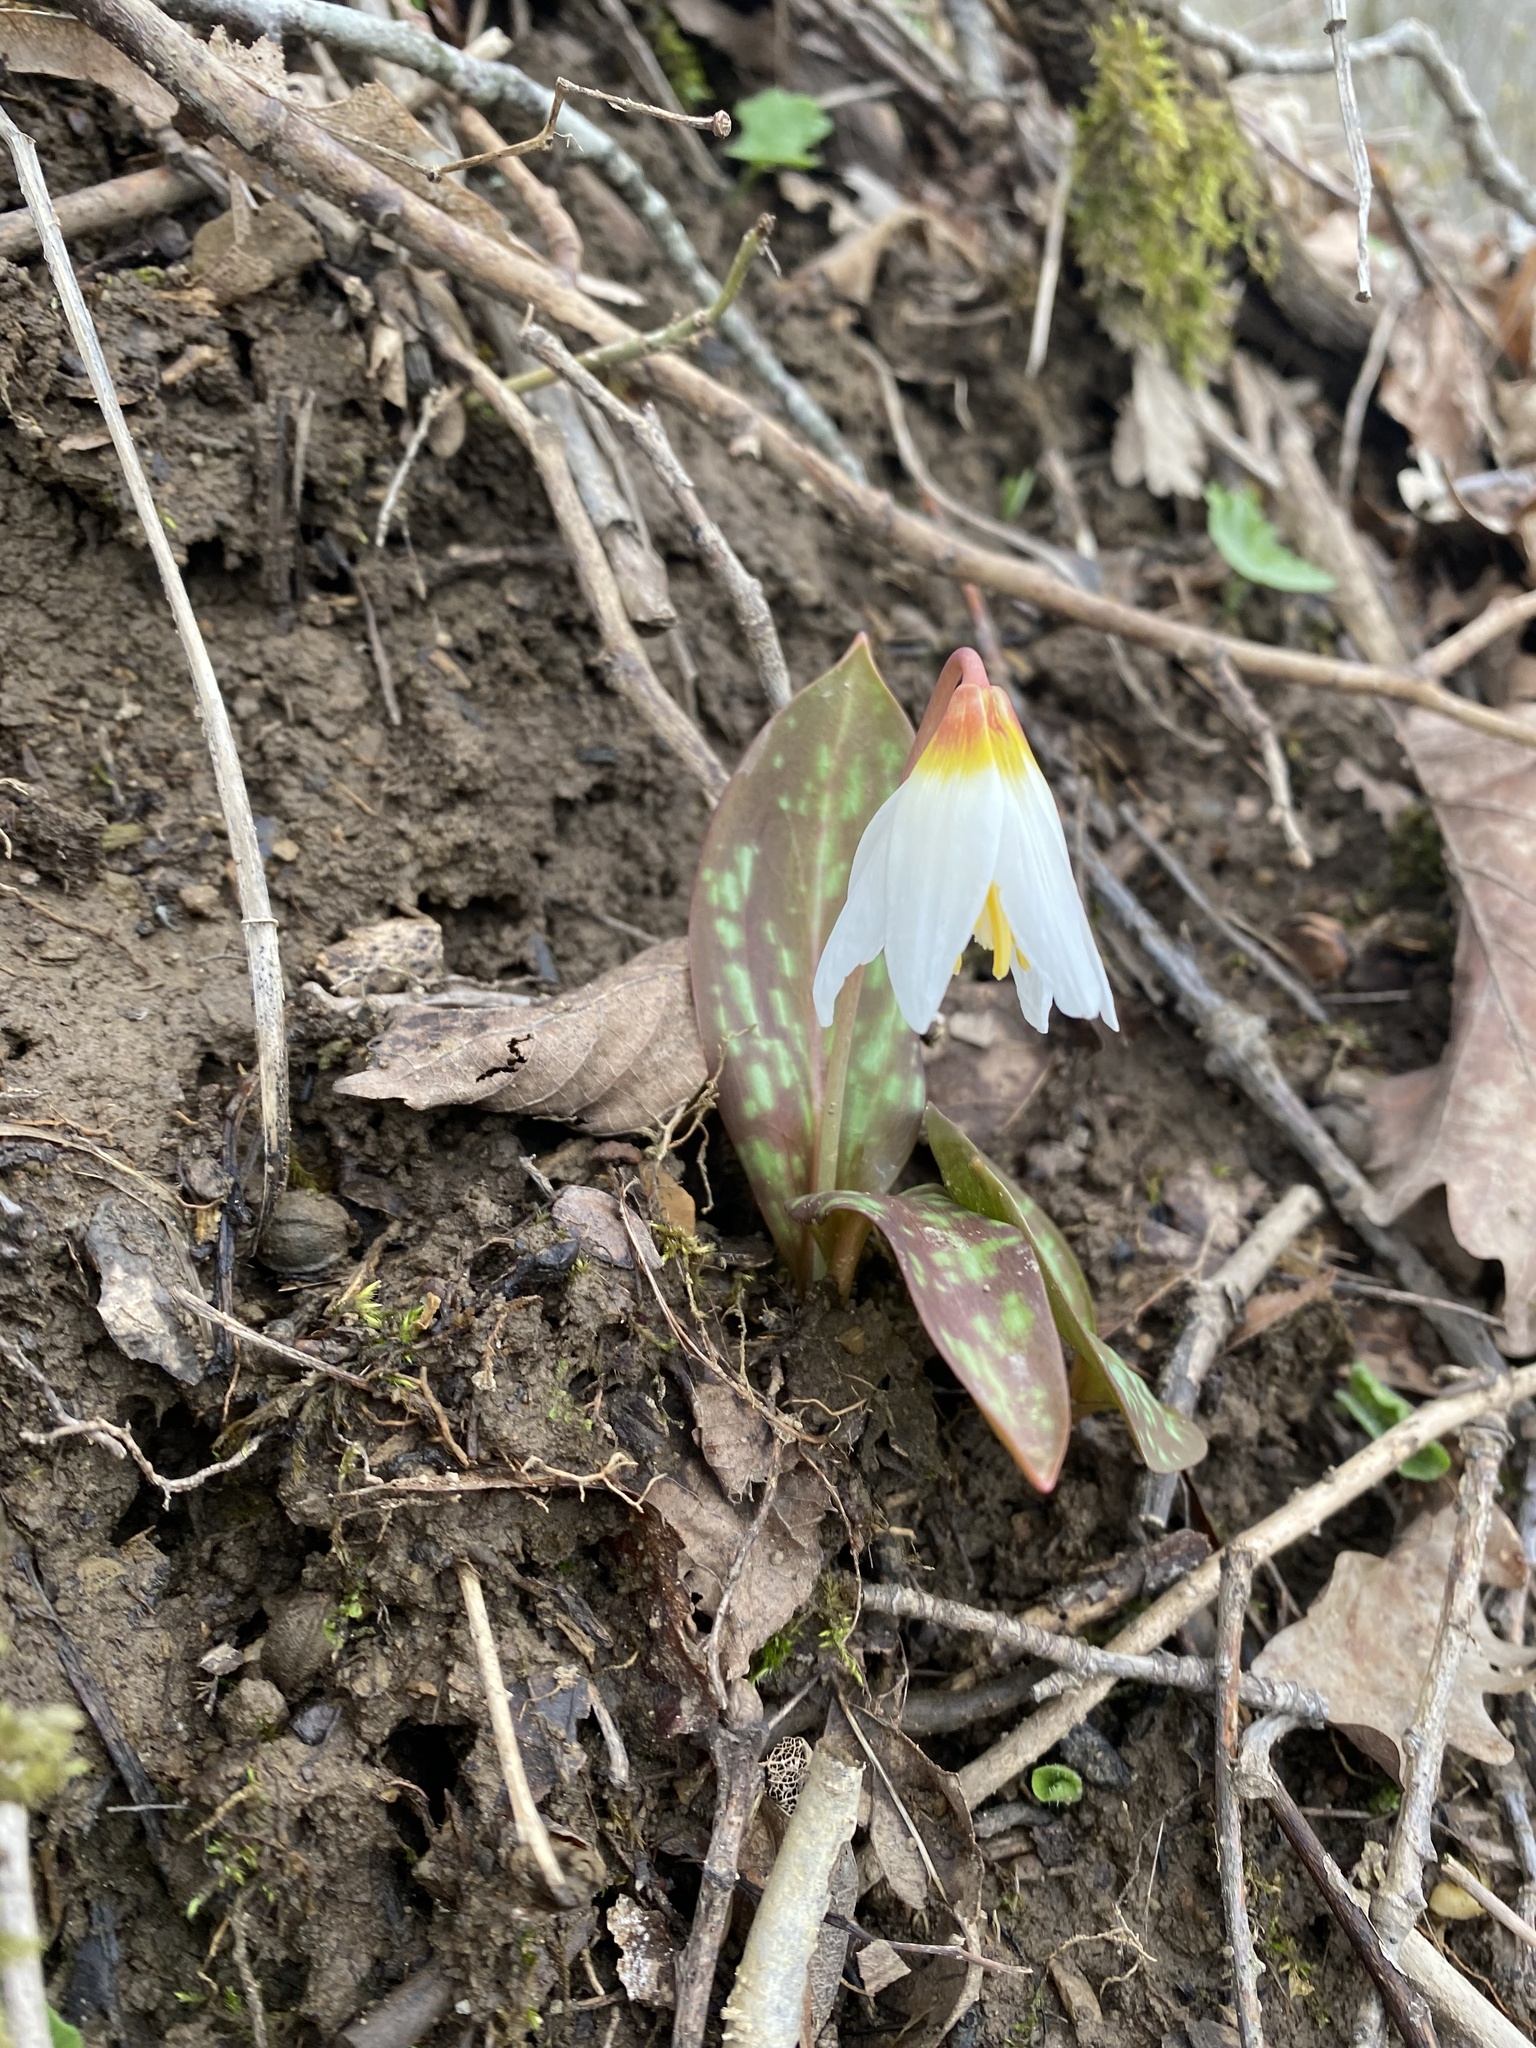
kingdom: Plantae
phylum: Tracheophyta
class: Liliopsida
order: Liliales
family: Liliaceae
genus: Erythronium
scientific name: Erythronium caucasicum
